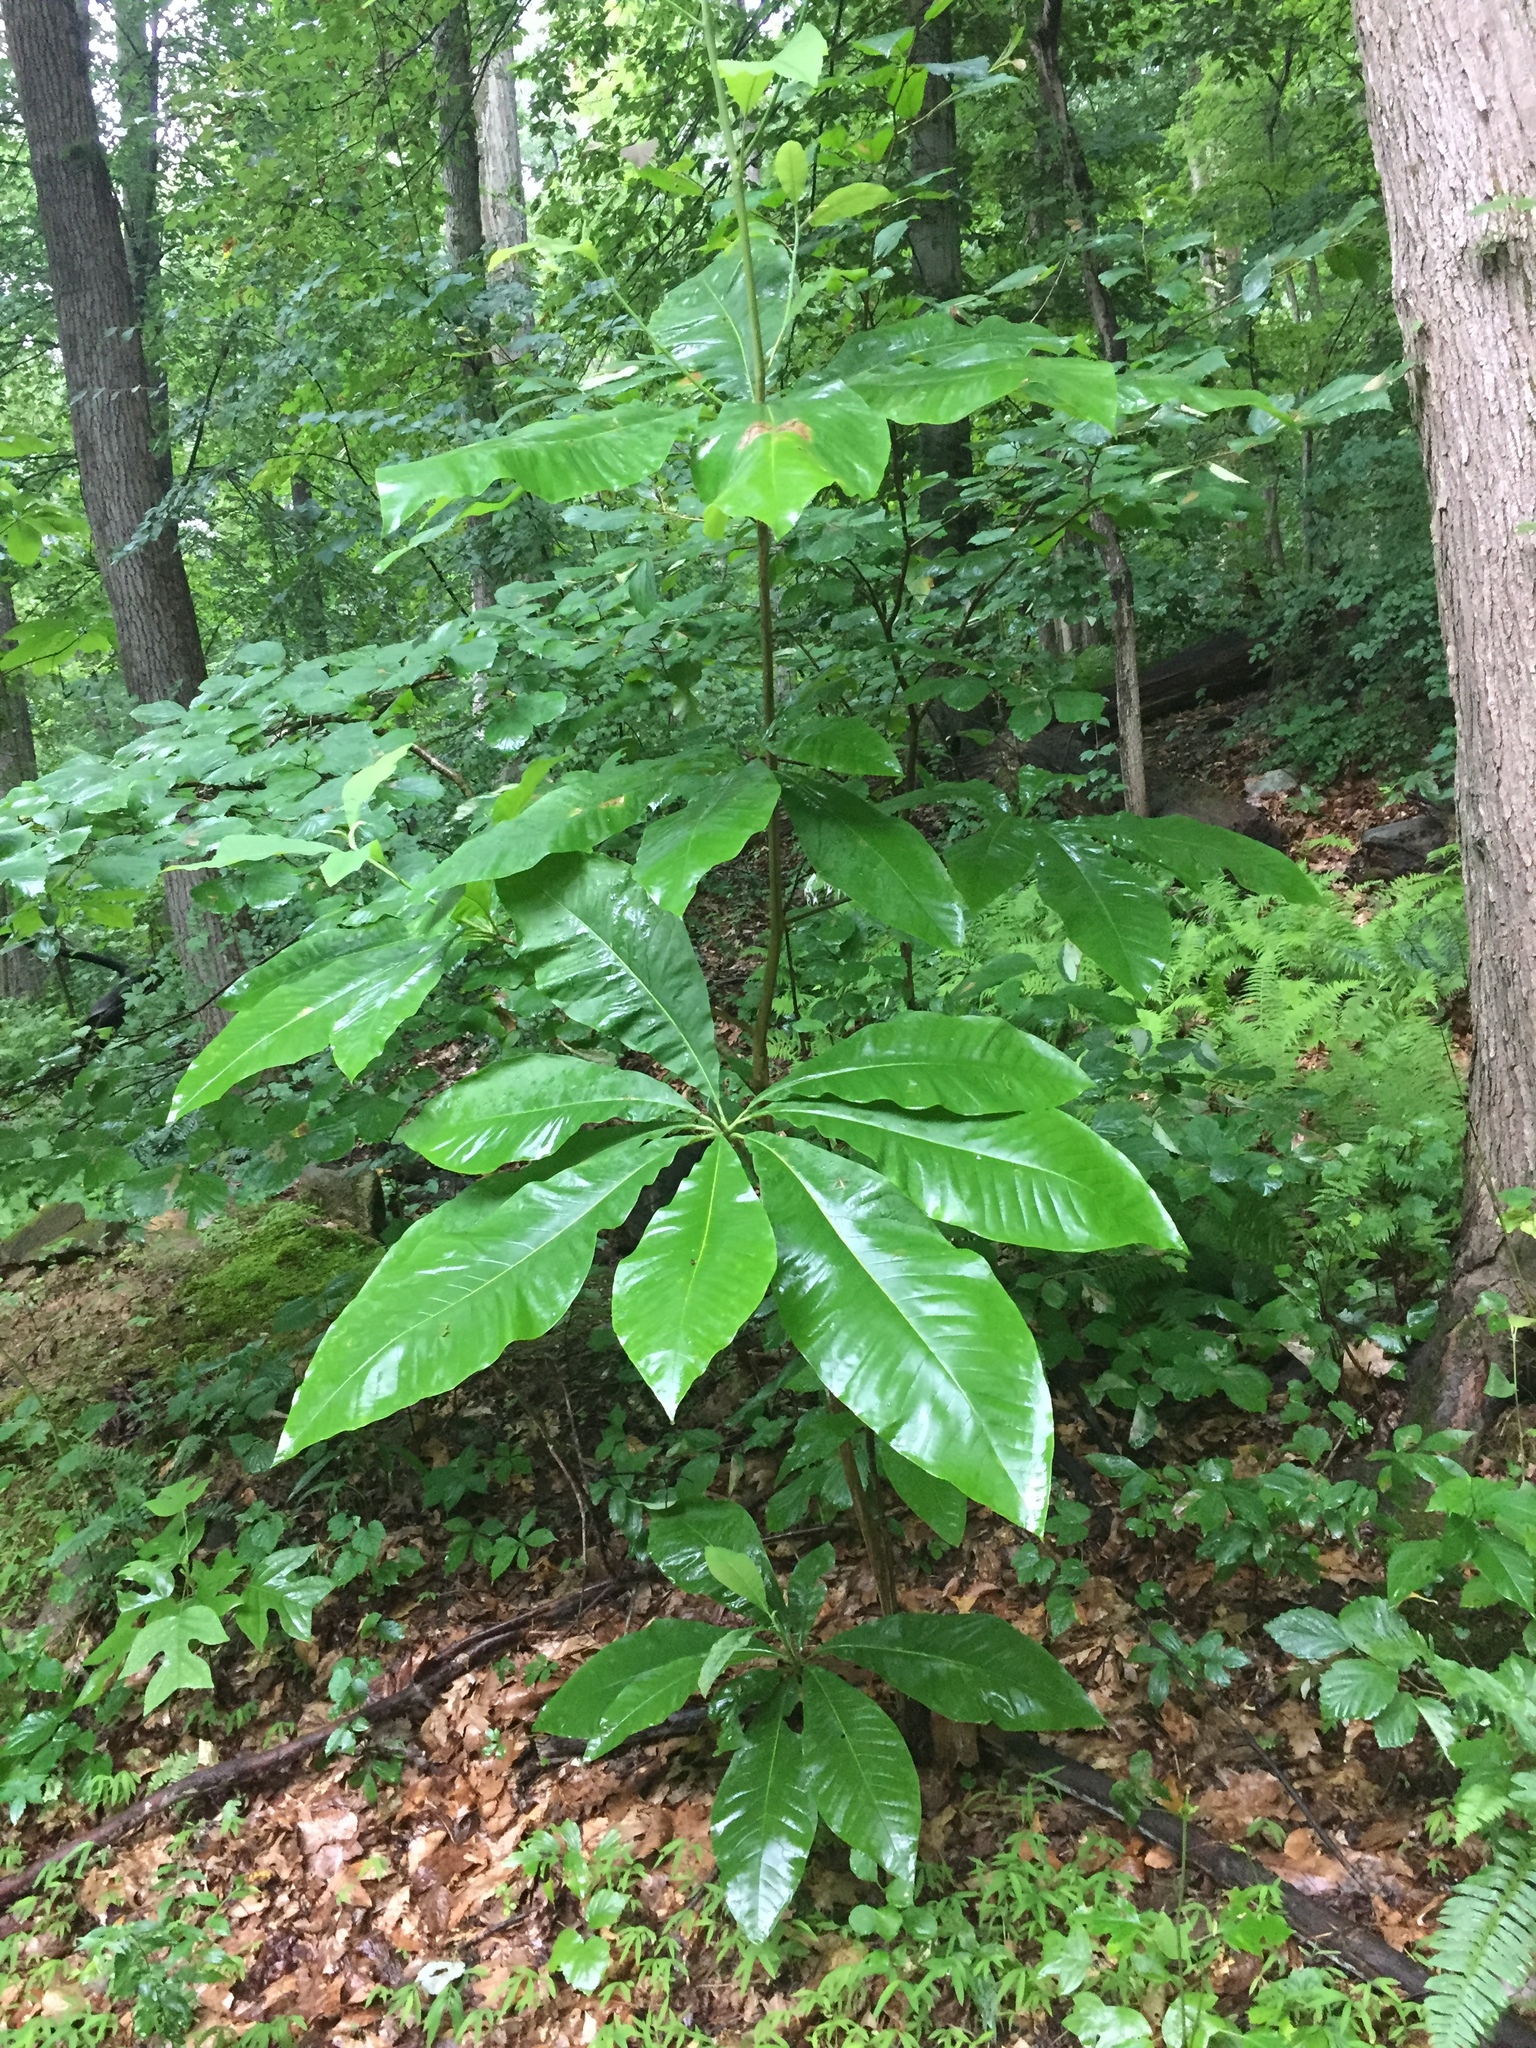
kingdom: Plantae
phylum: Tracheophyta
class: Magnoliopsida
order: Magnoliales
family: Magnoliaceae
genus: Magnolia
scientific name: Magnolia tripetala
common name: Umbrella magnolia
